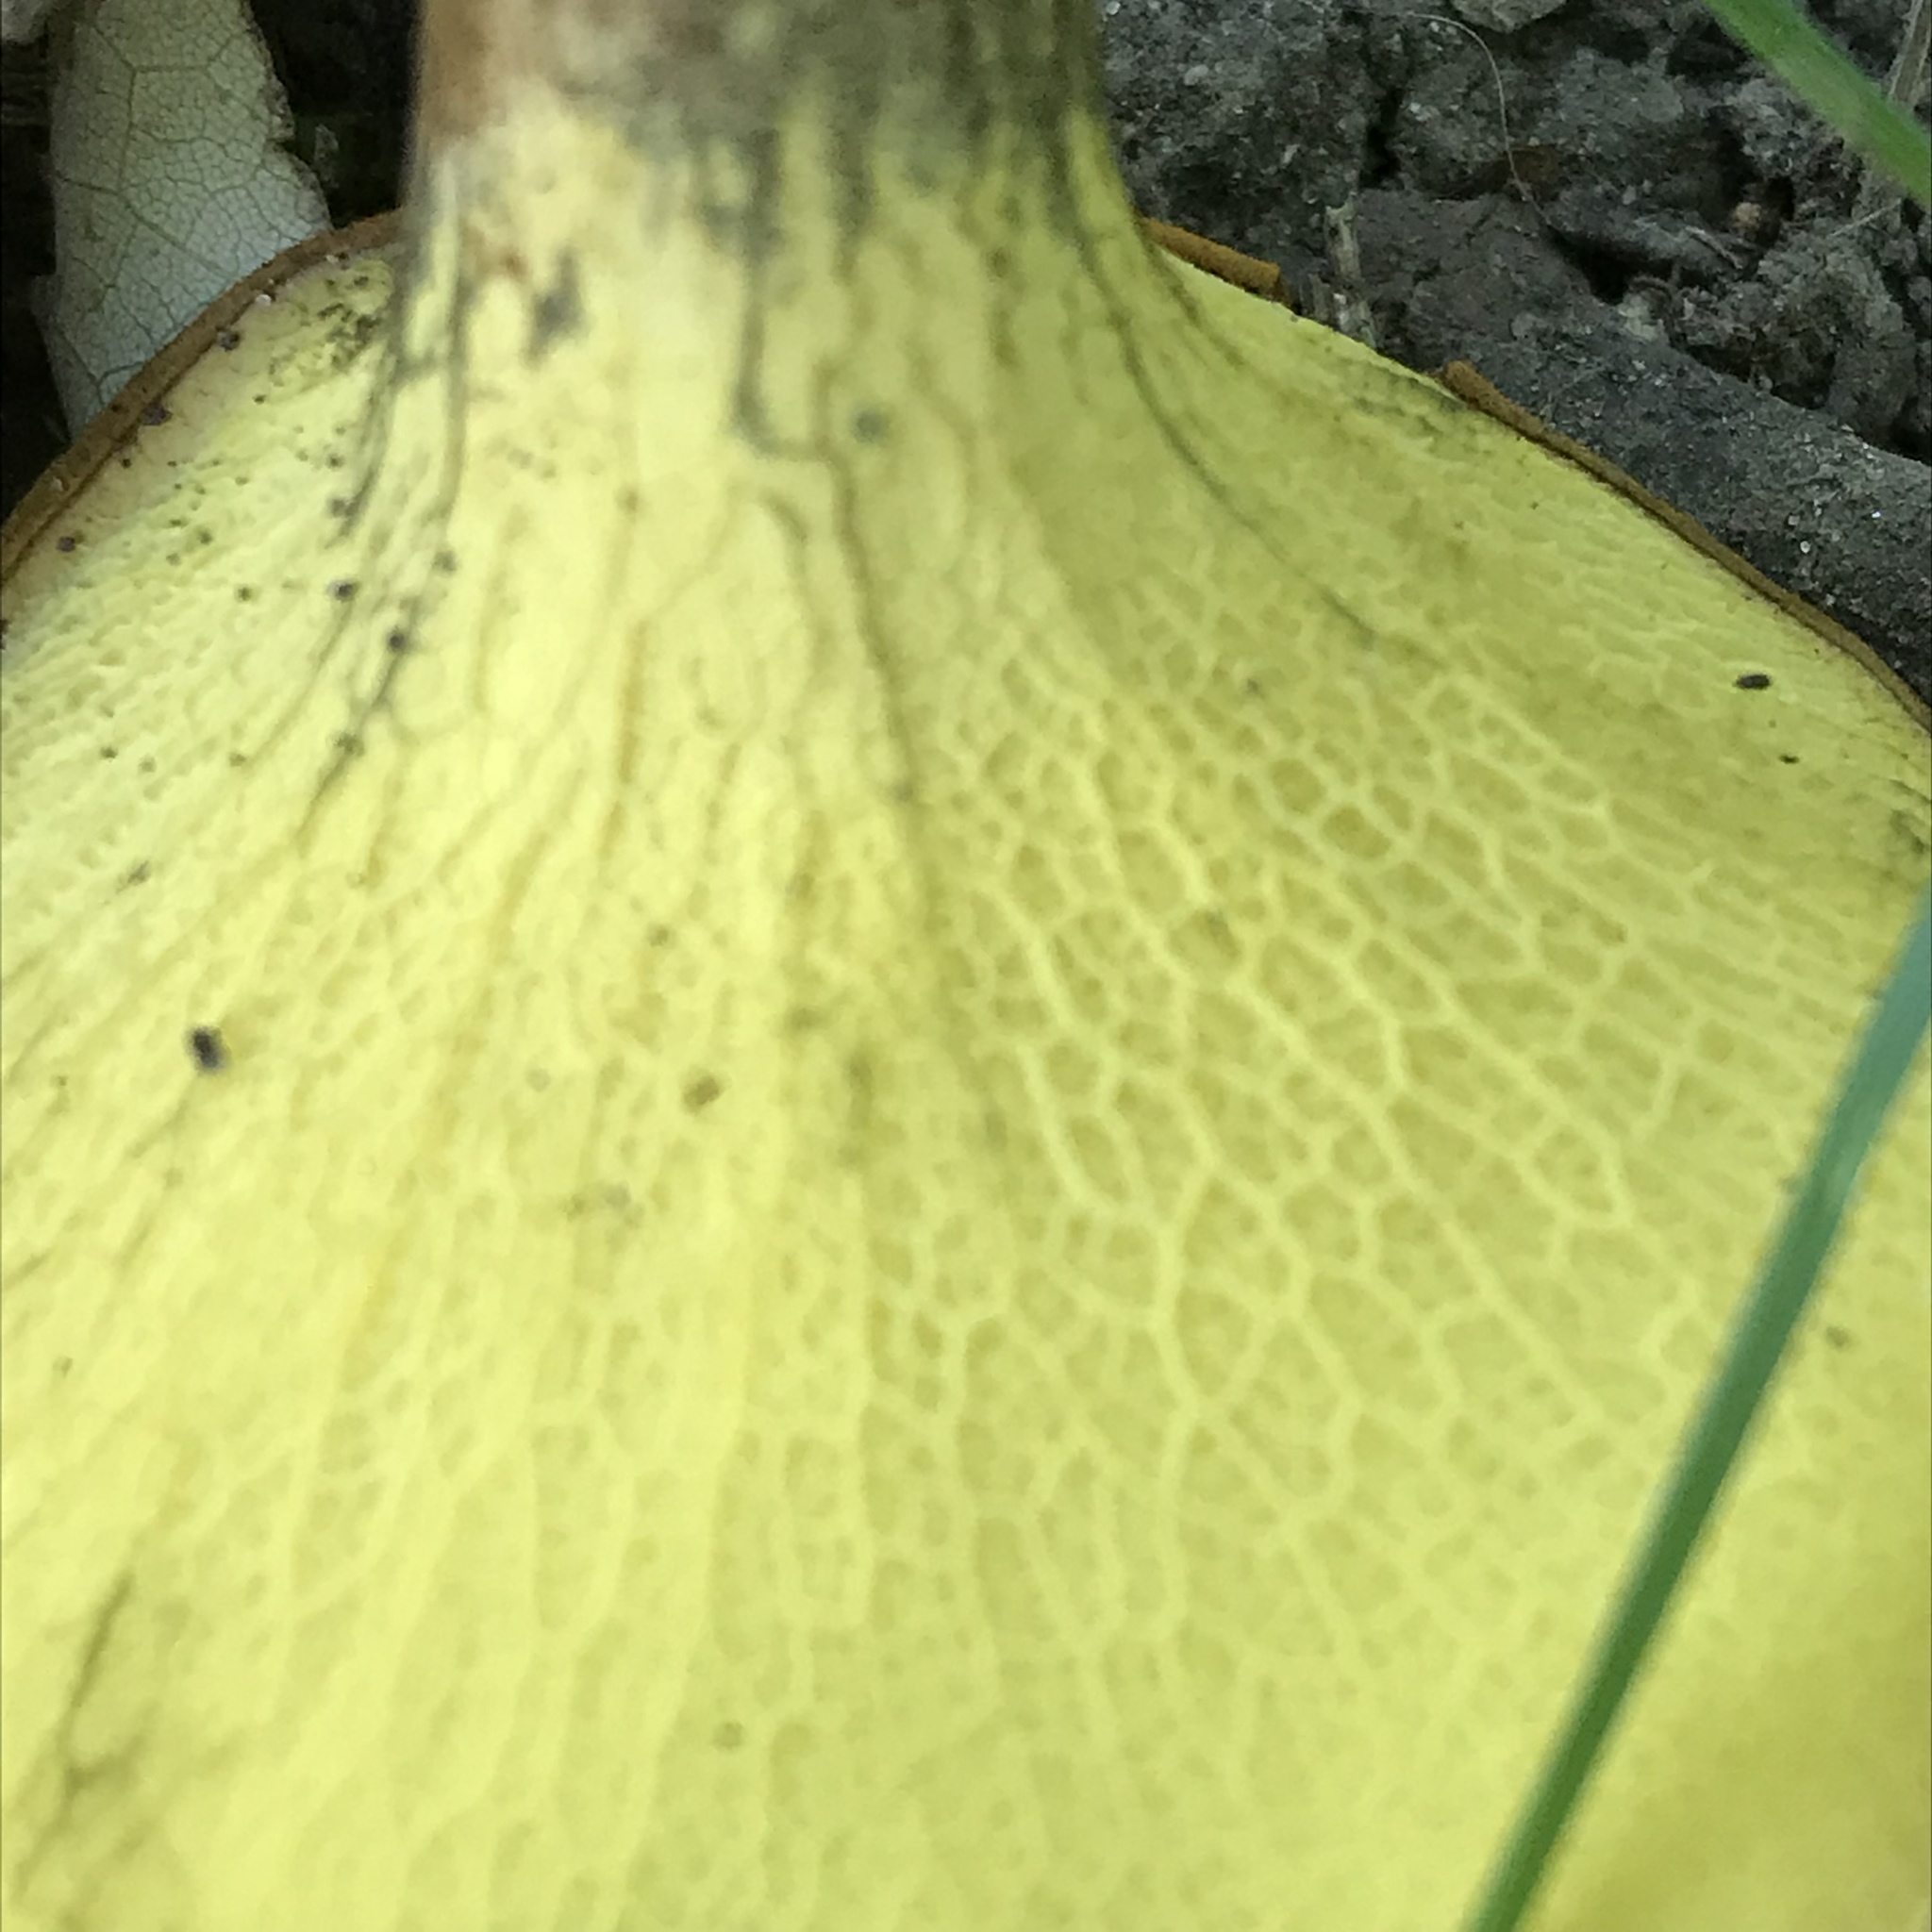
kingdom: Fungi
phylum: Basidiomycota
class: Agaricomycetes
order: Boletales
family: Boletinellaceae
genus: Boletinellus
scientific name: Boletinellus merulioides
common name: Ash tree bolete
